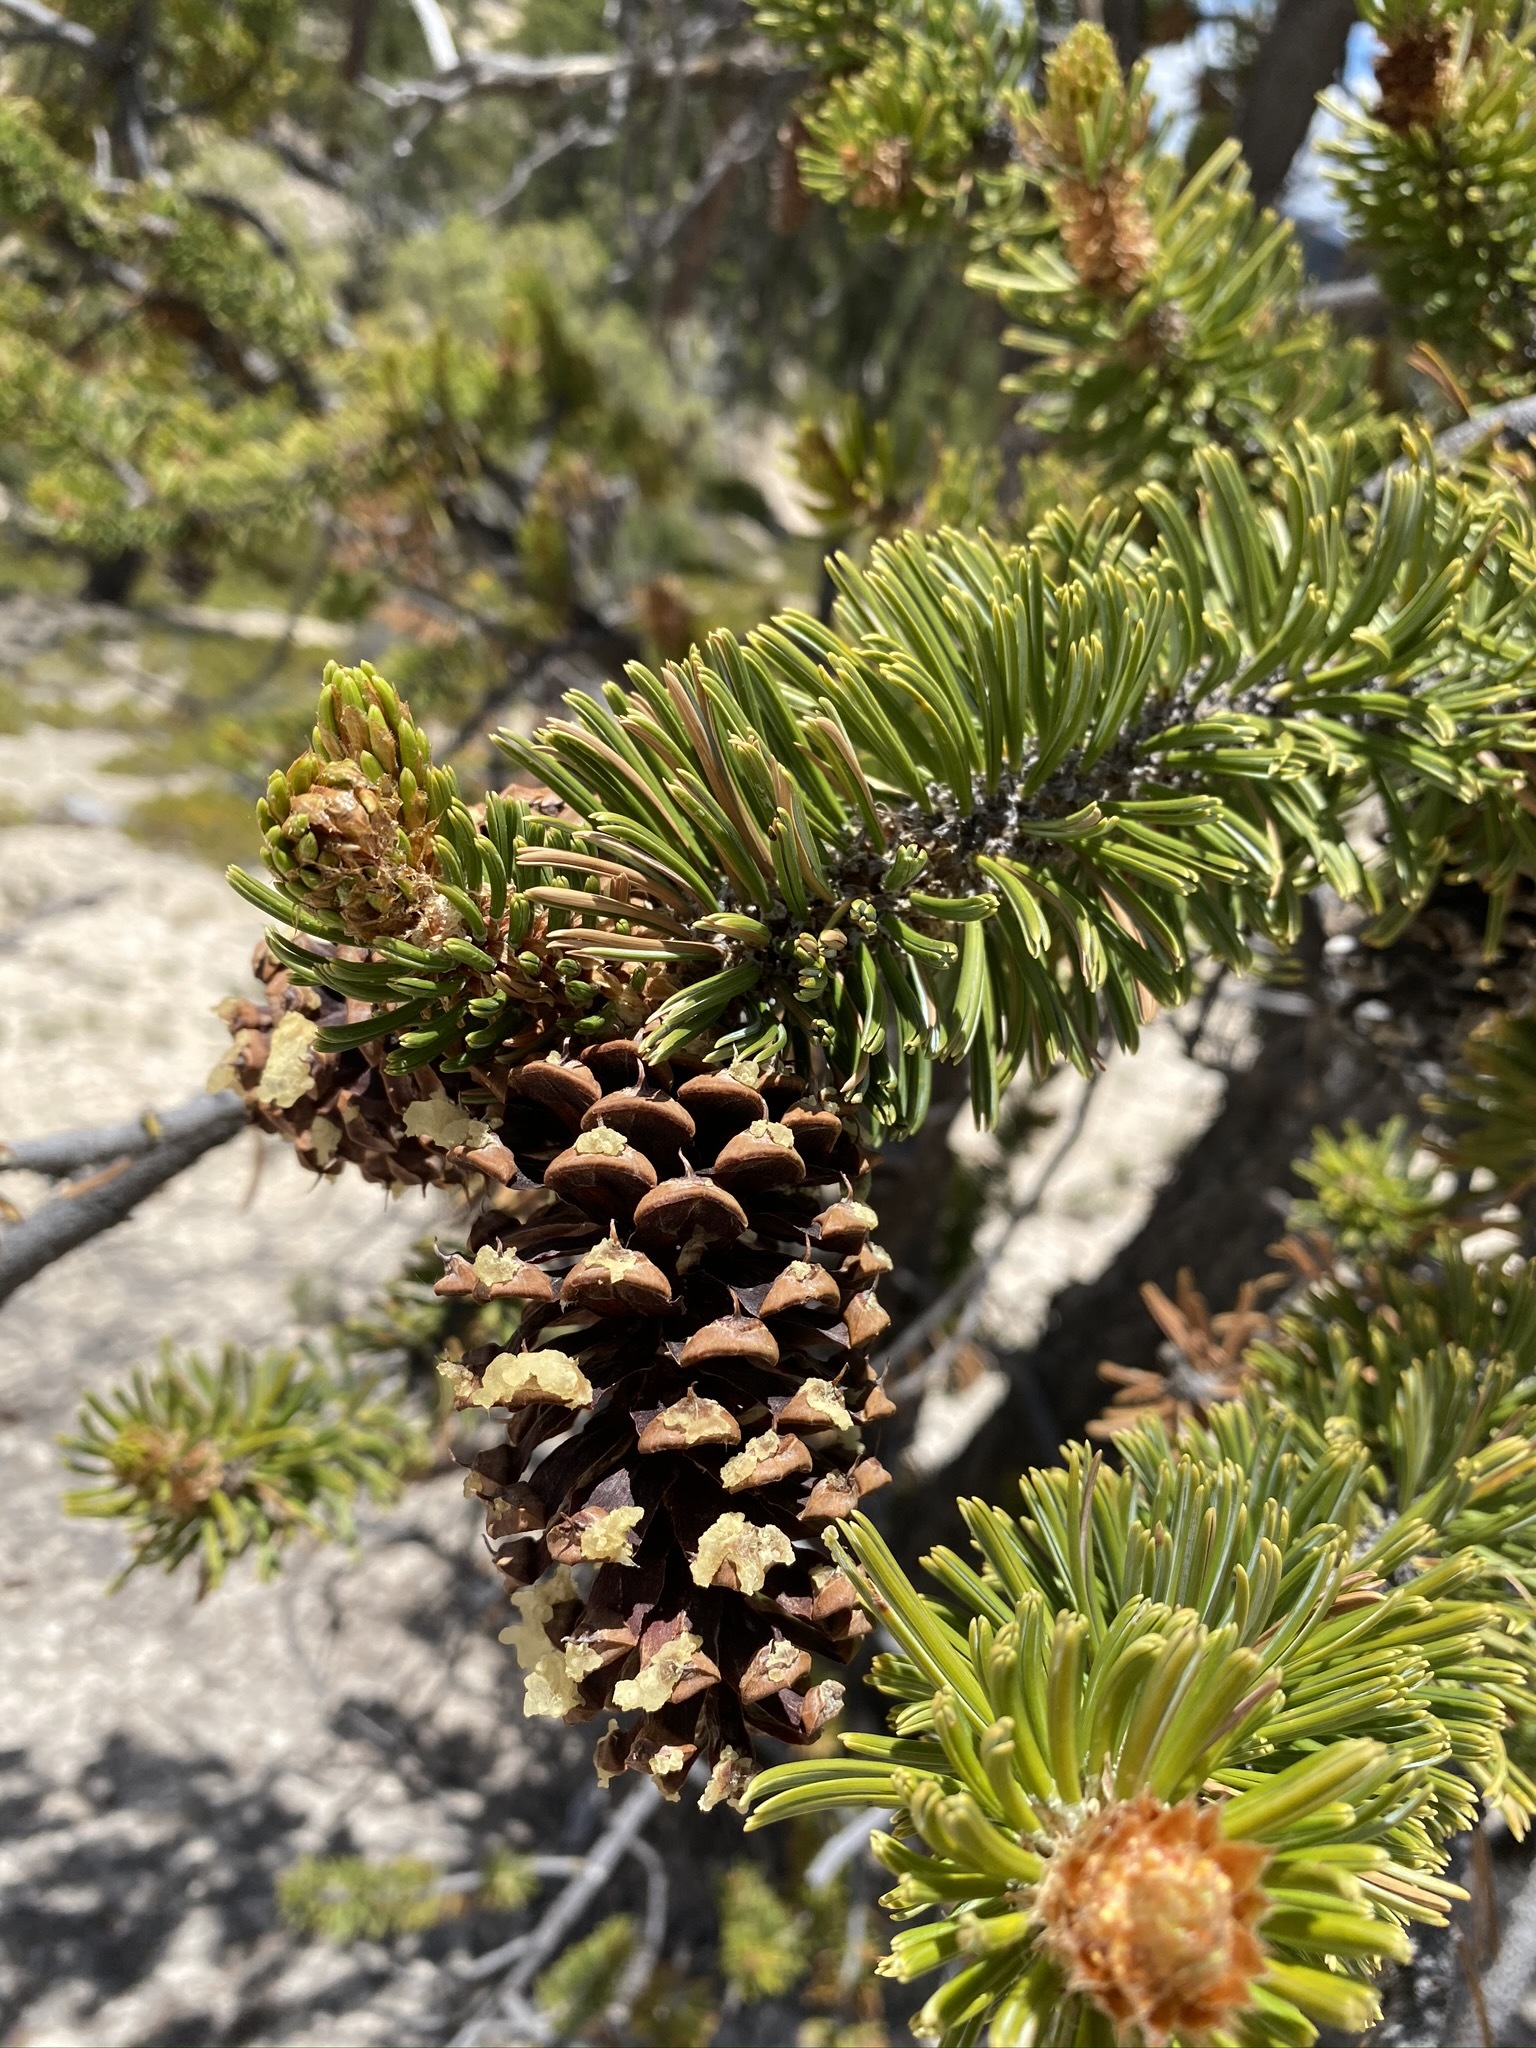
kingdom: Plantae
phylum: Tracheophyta
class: Pinopsida
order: Pinales
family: Pinaceae
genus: Pinus
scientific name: Pinus longaeva
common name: Intermountain bristlecone pine
